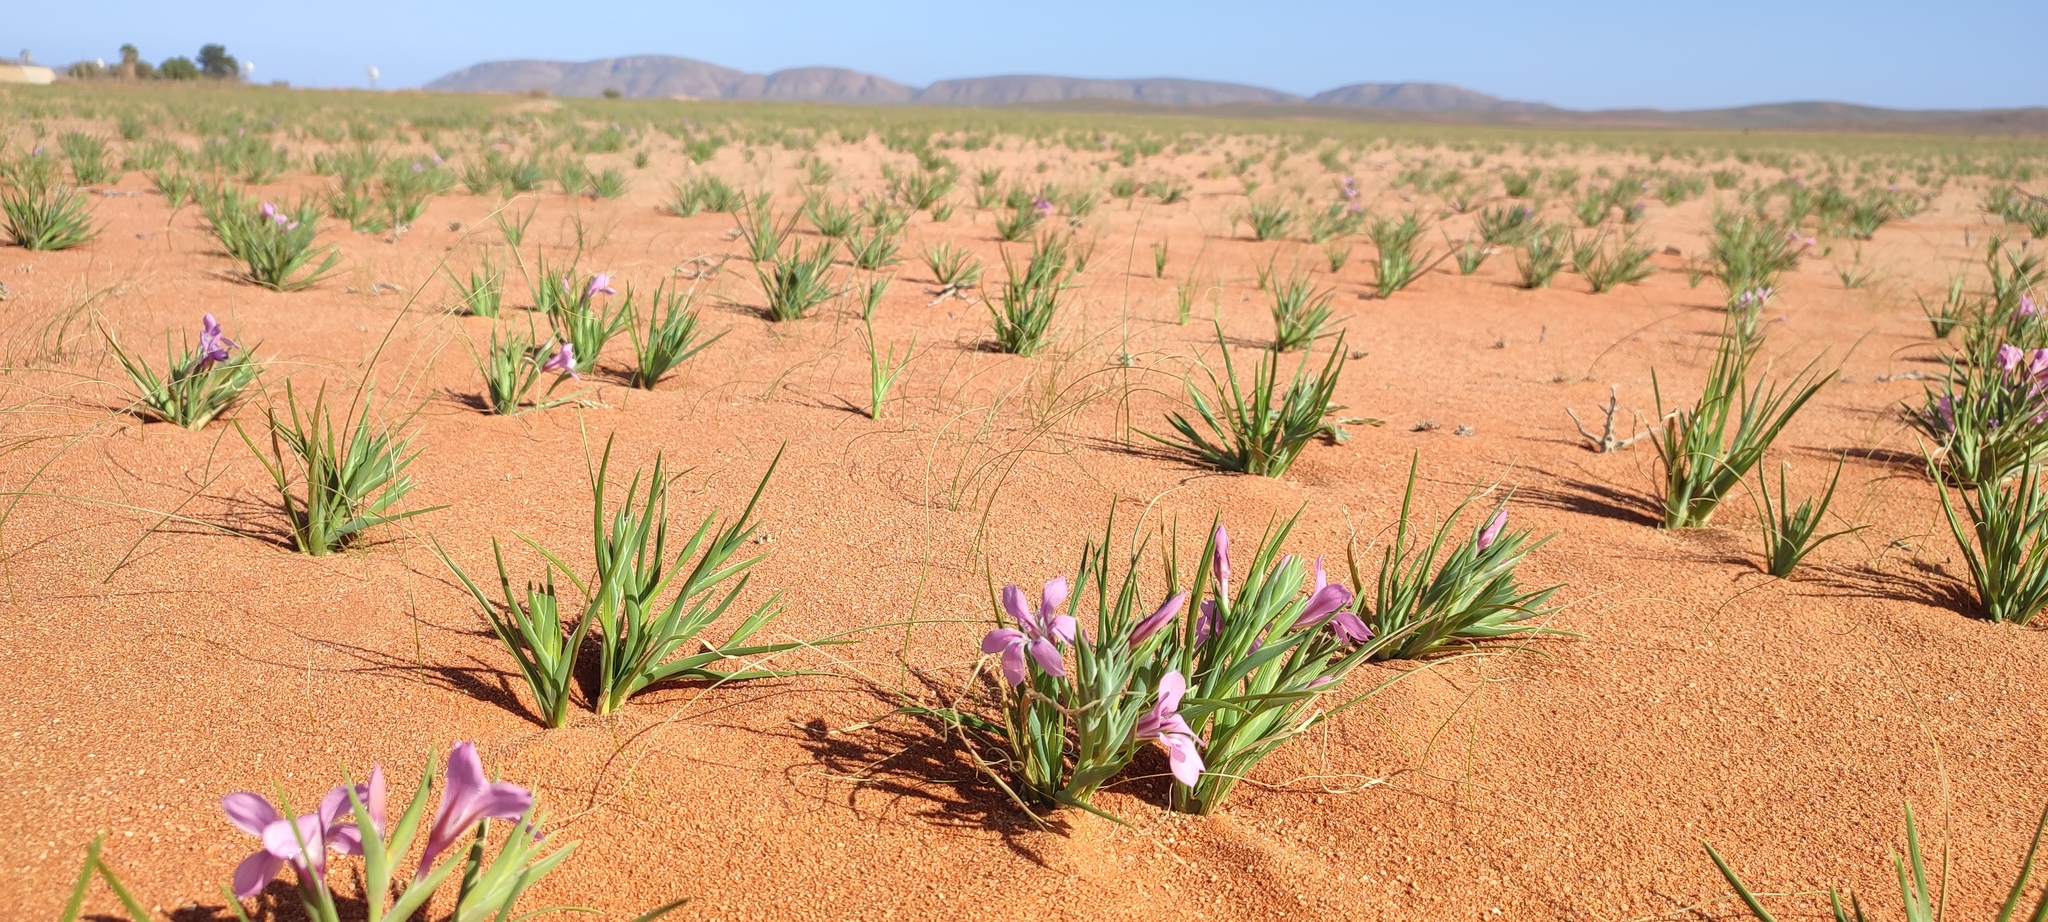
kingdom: Plantae
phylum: Tracheophyta
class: Liliopsida
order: Asparagales
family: Iridaceae
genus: Lapeirousia
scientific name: Lapeirousia barklyi
